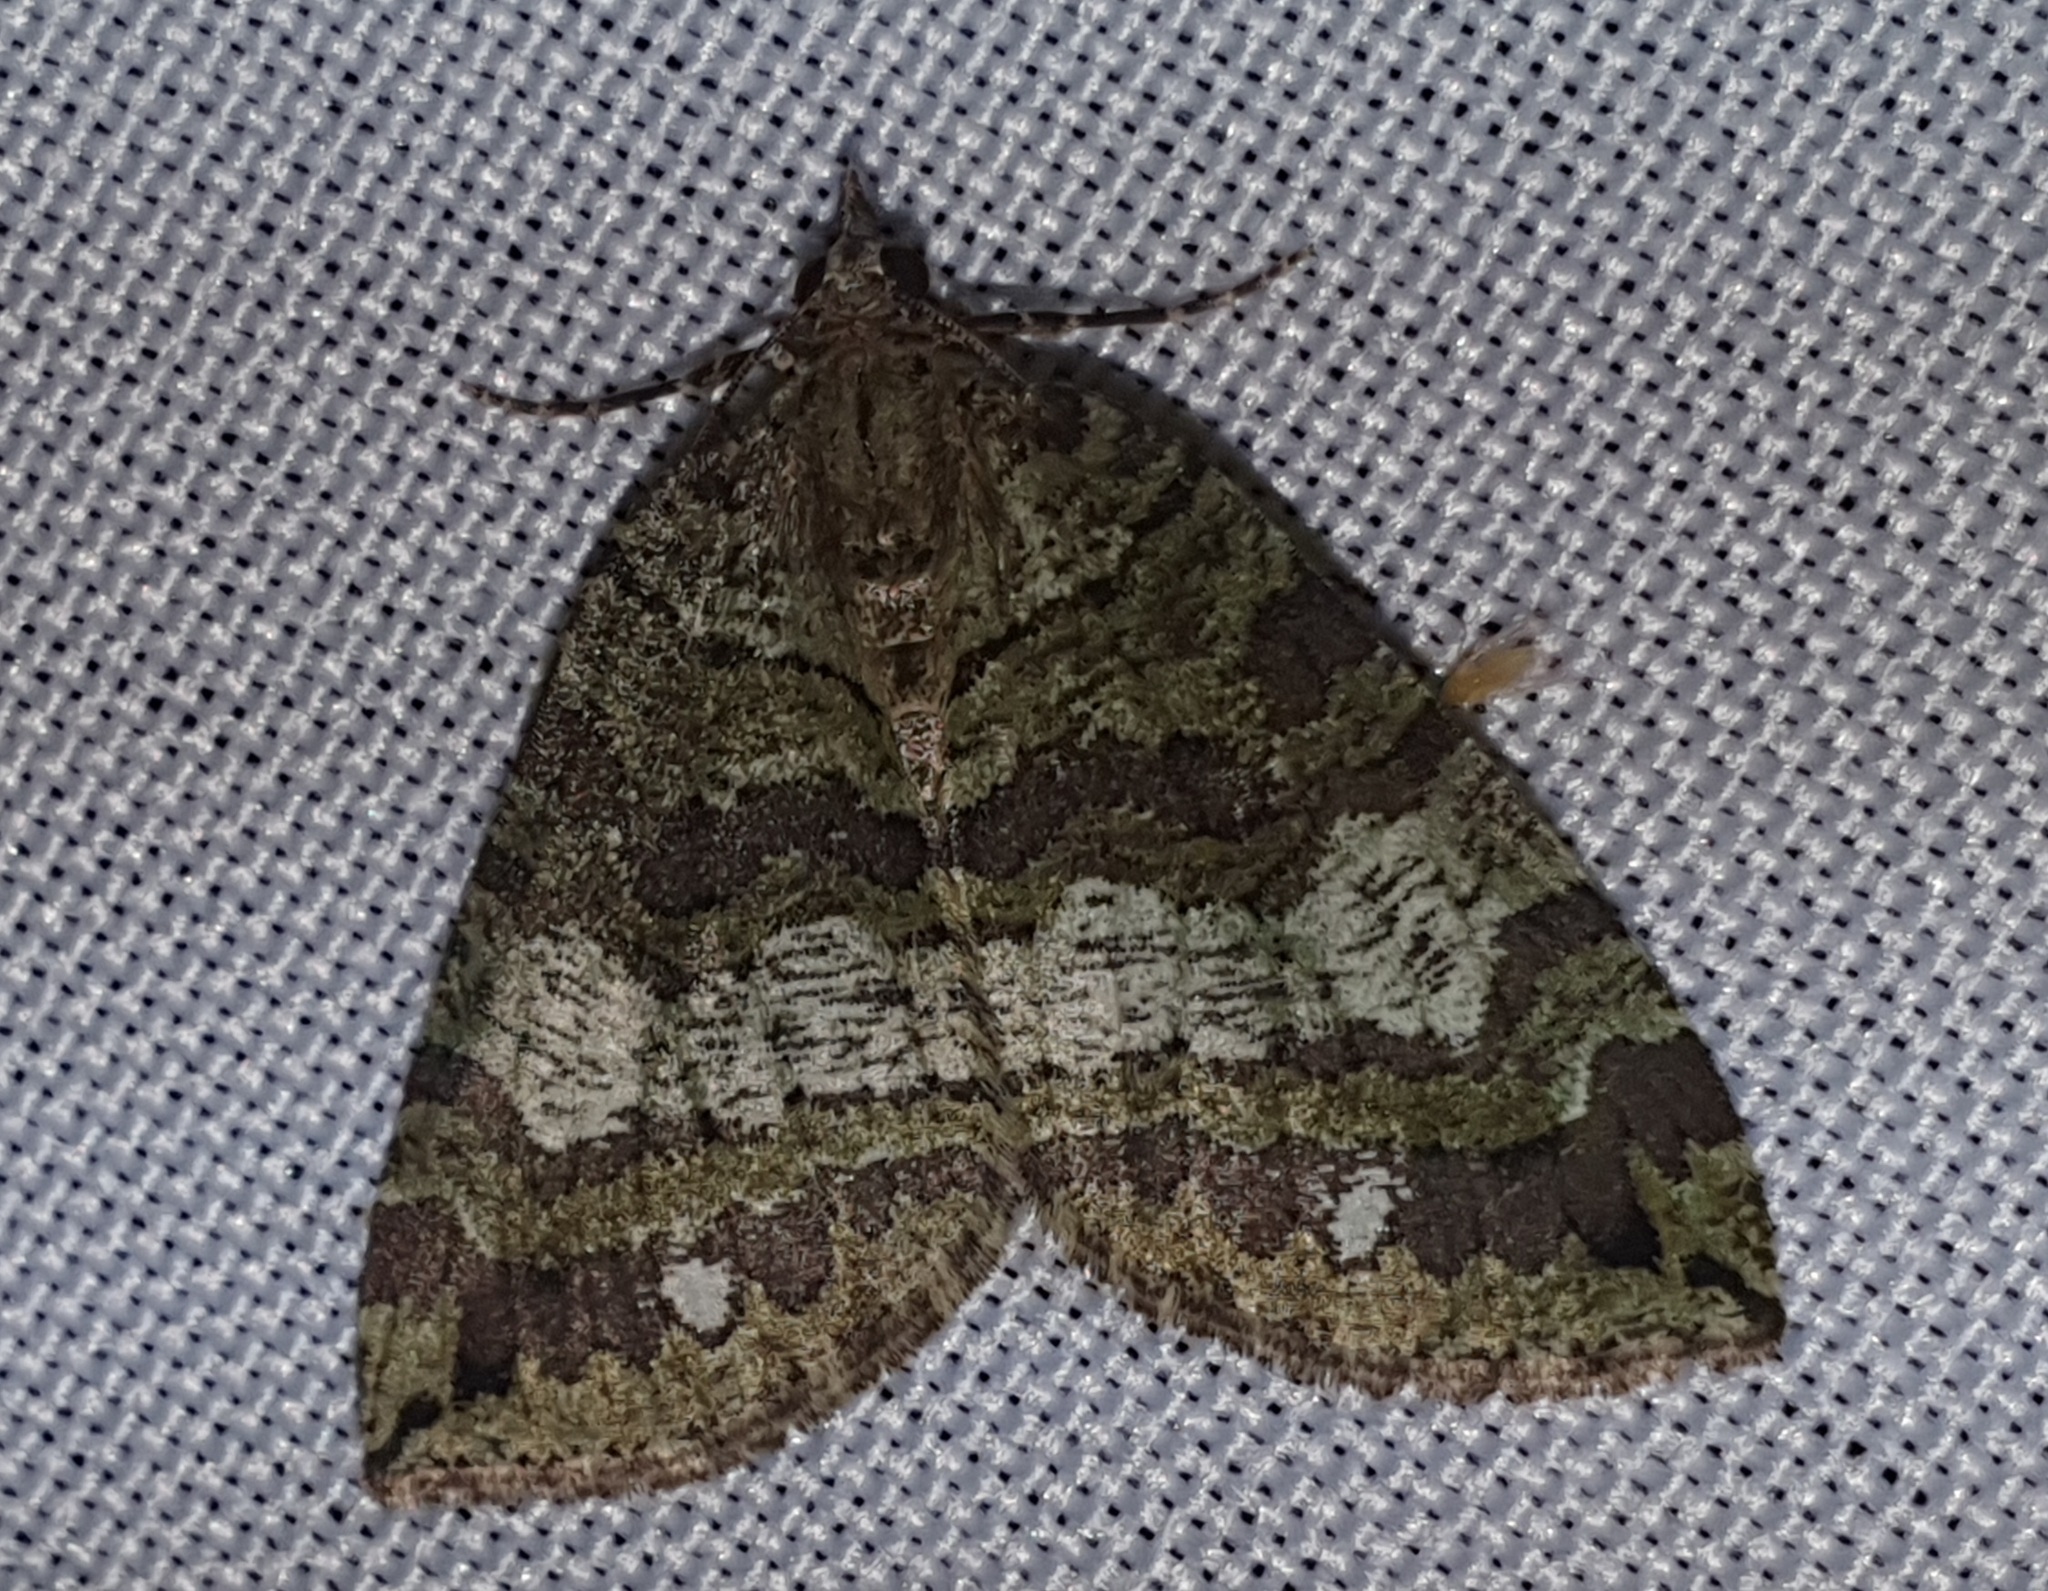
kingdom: Animalia
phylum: Arthropoda
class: Insecta
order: Lepidoptera
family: Geometridae
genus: Hydriomena
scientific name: Hydriomena furcata
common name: July highflyer
